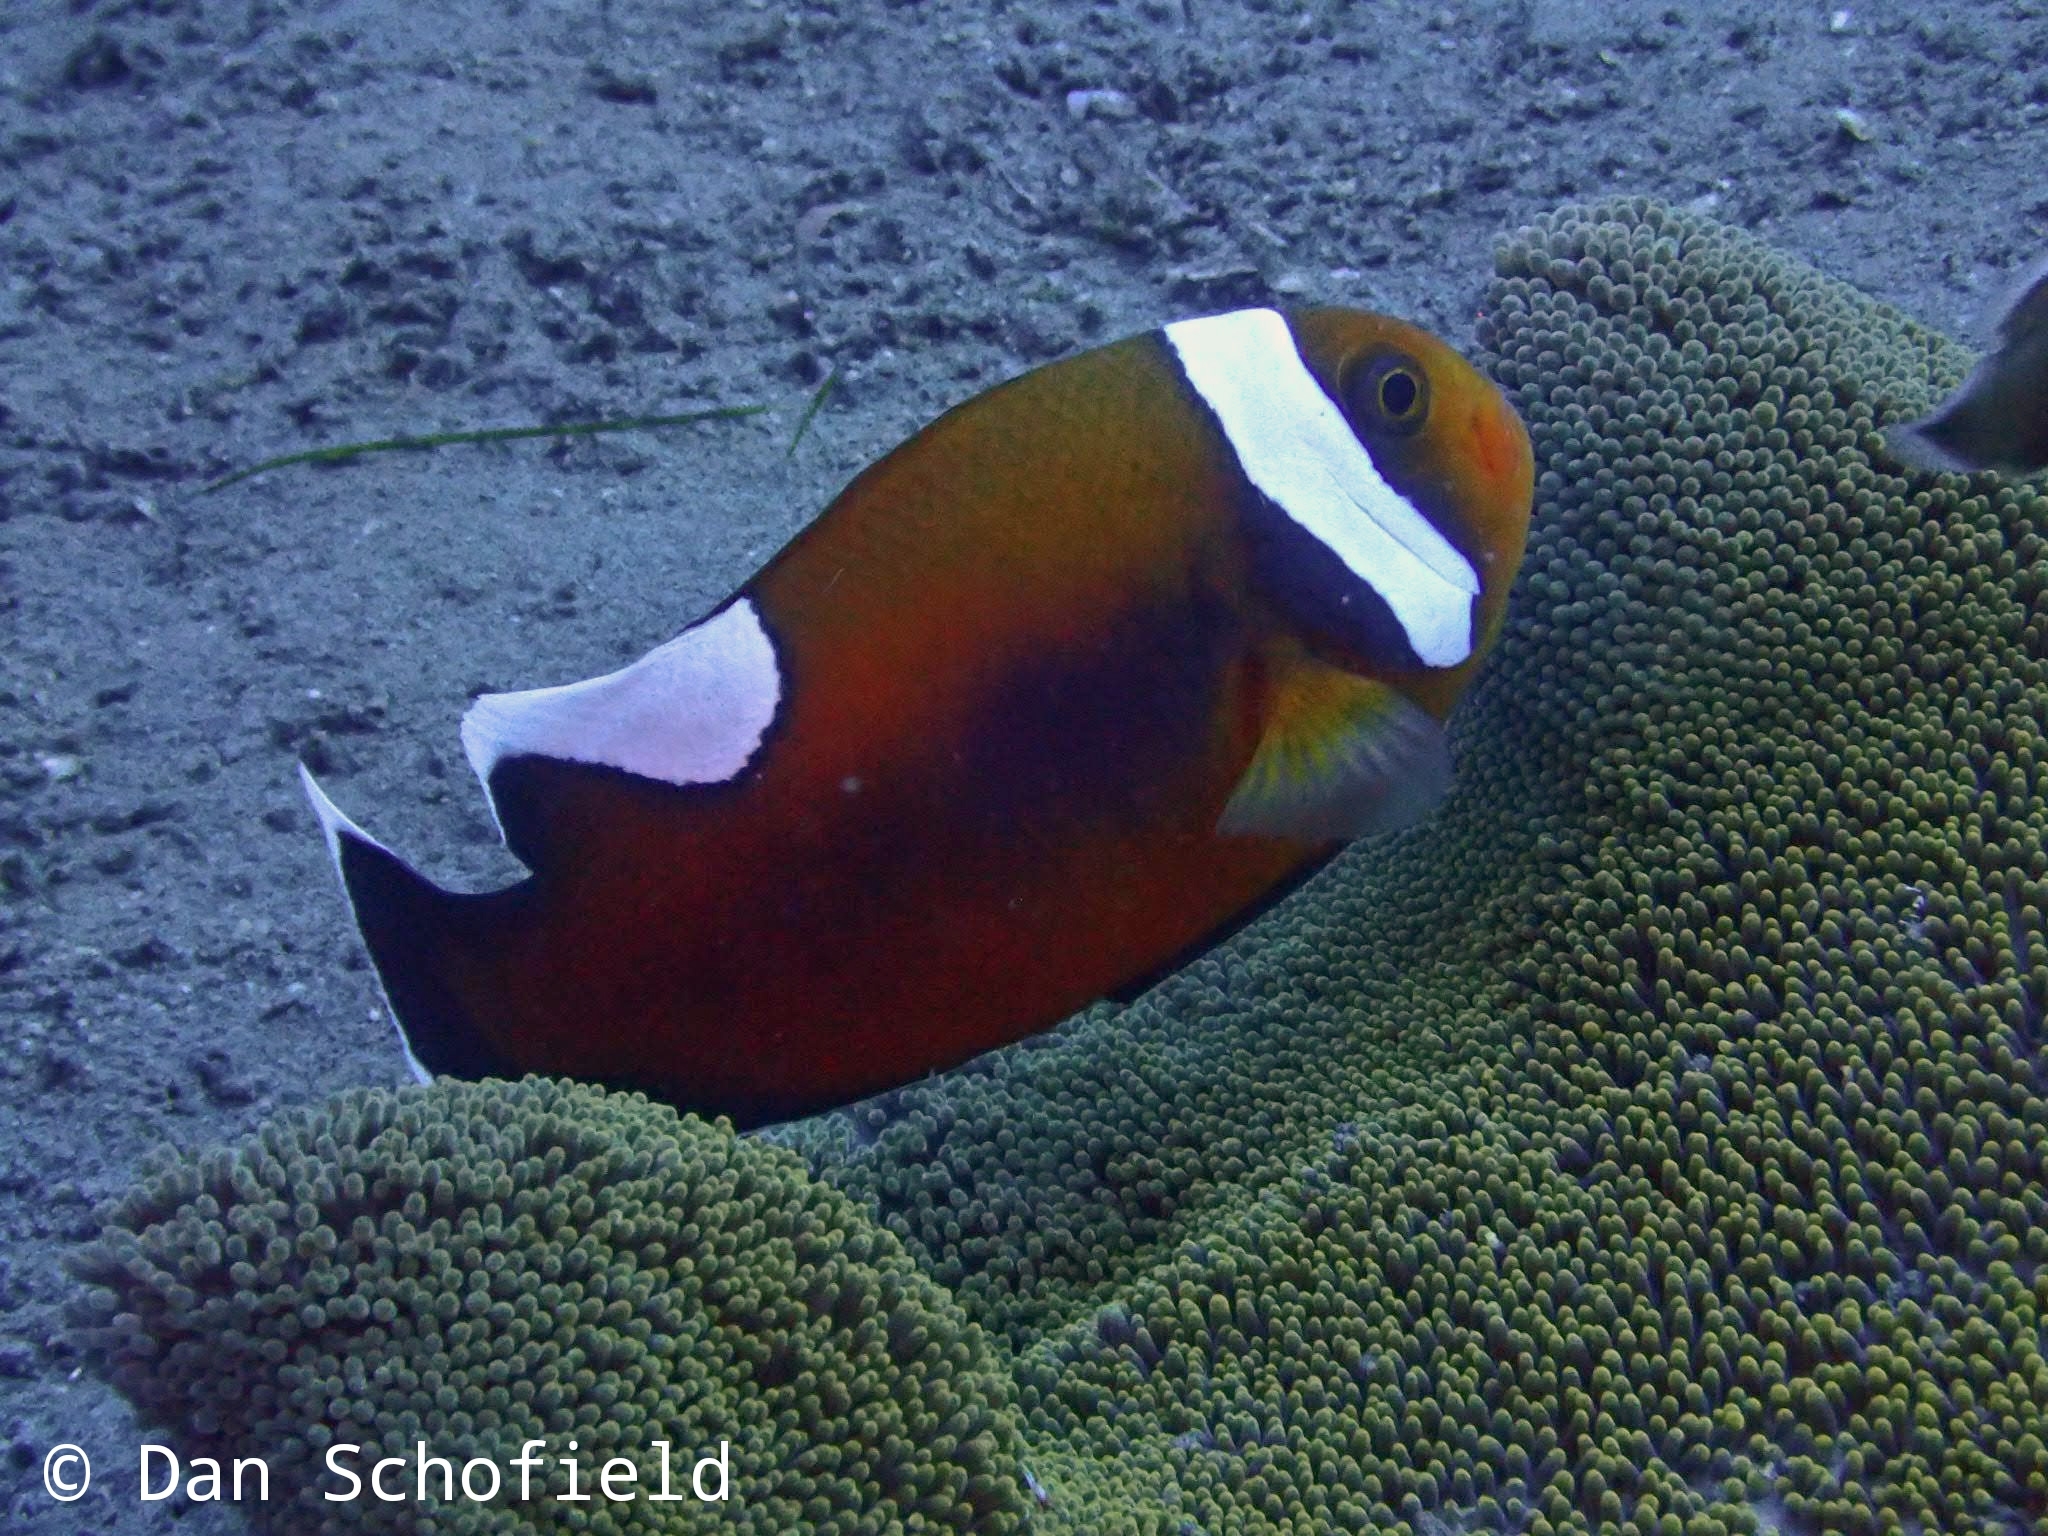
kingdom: Animalia
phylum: Chordata
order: Perciformes
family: Pomacentridae
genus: Amphiprion
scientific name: Amphiprion polymnus
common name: Saddleback anemonefish
